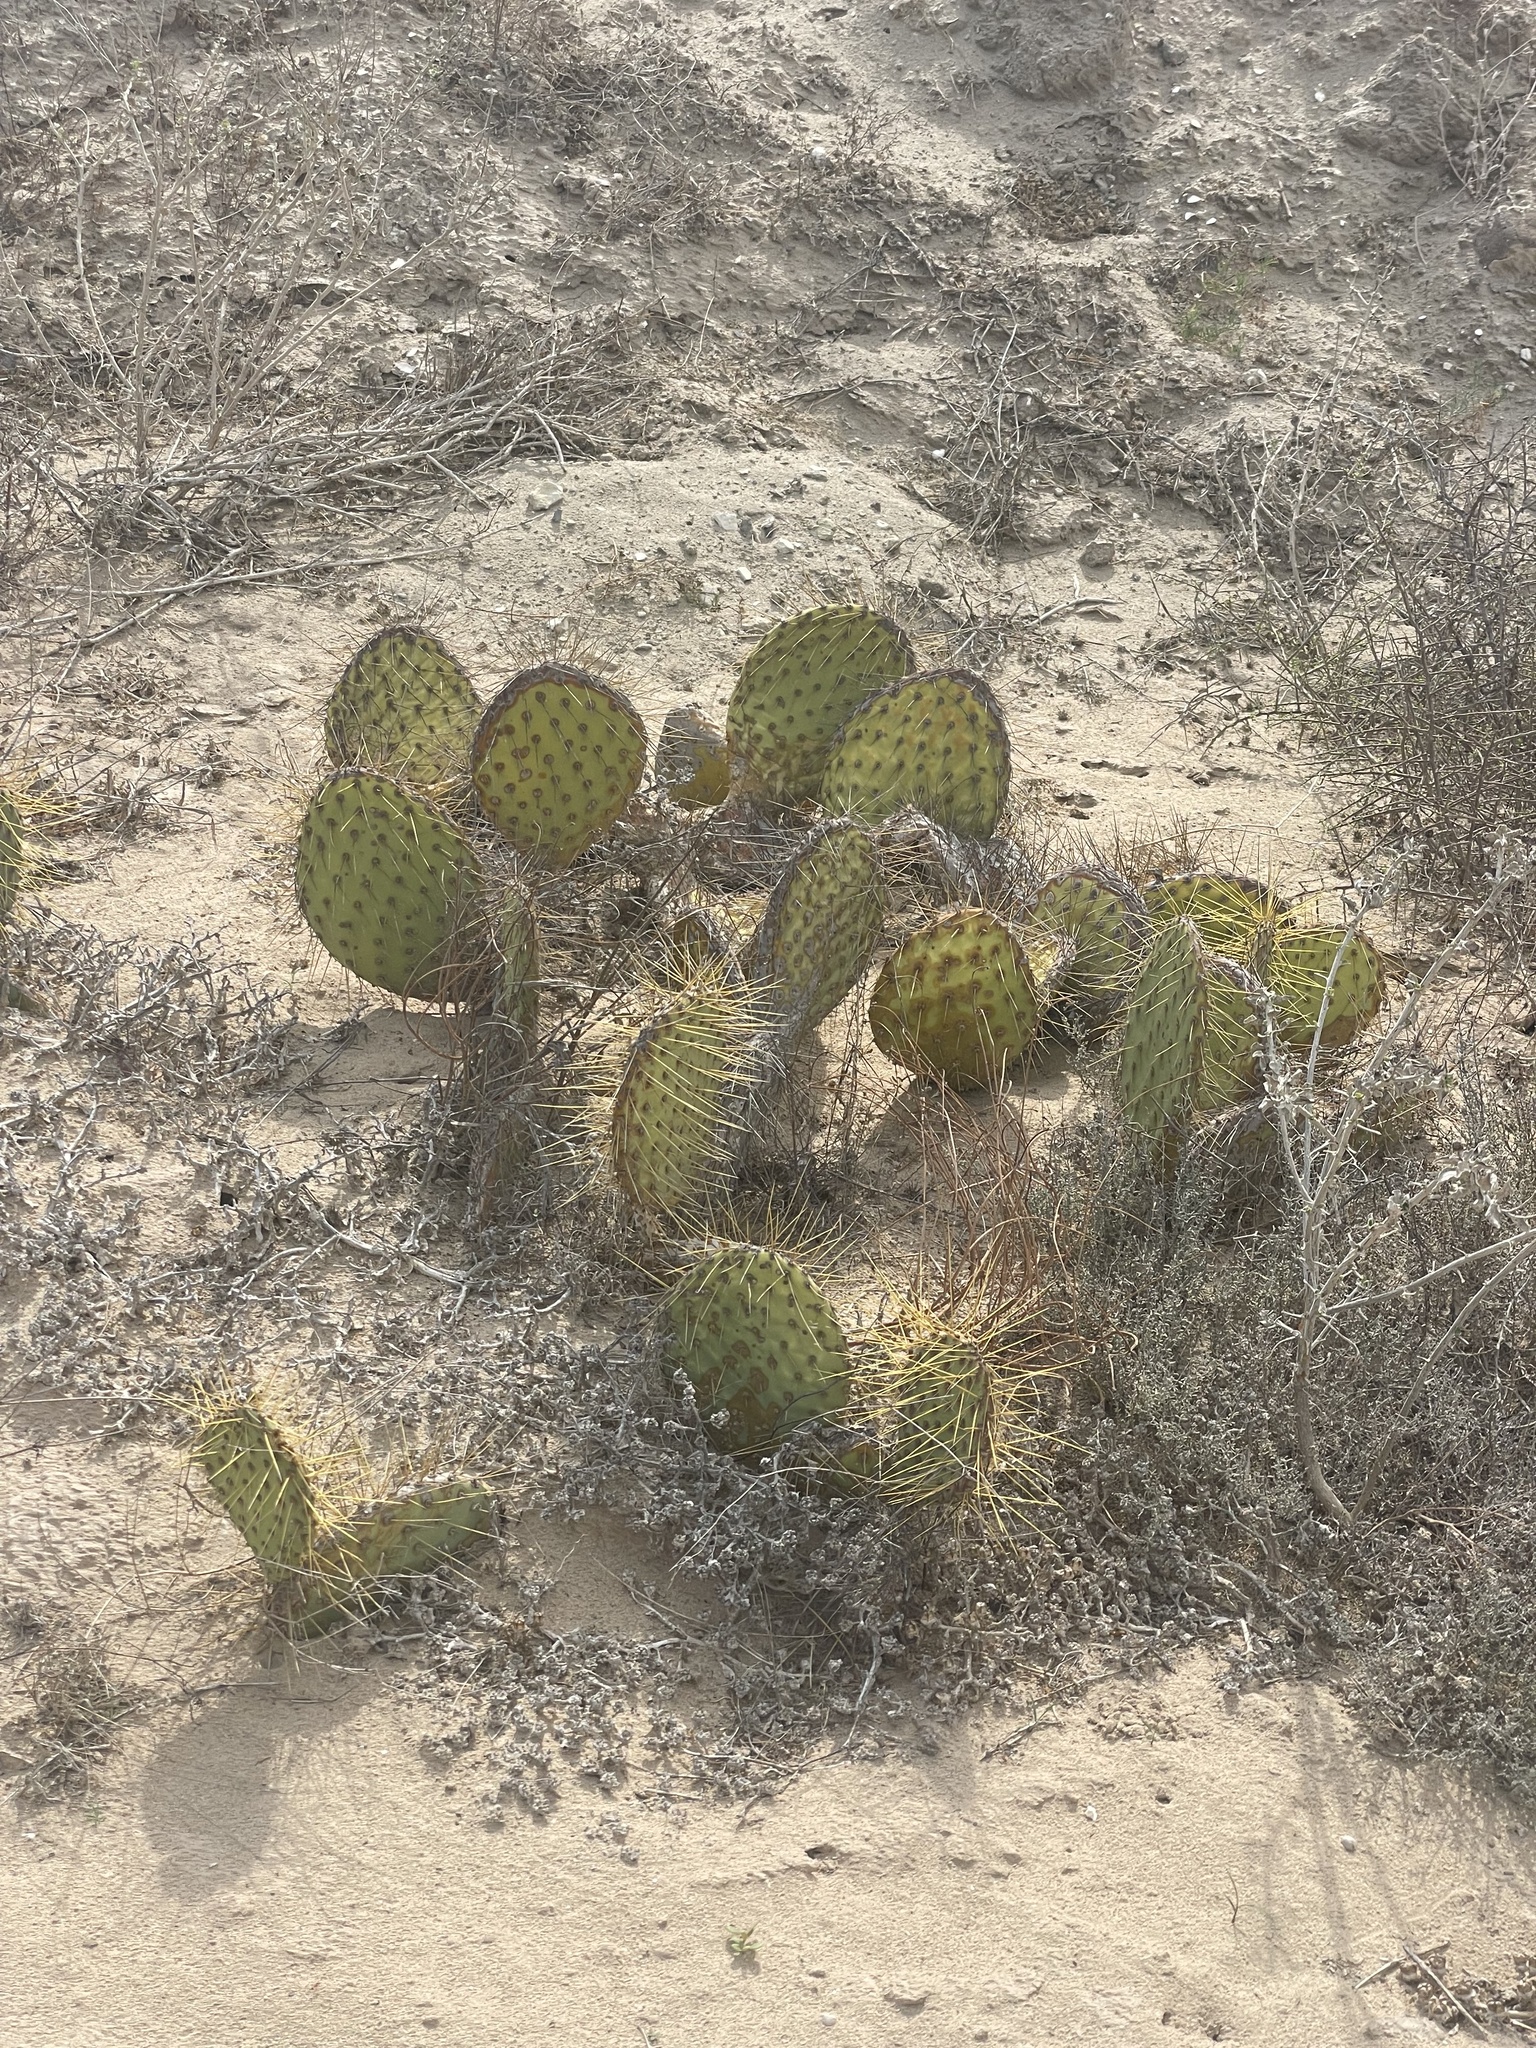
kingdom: Plantae
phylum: Tracheophyta
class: Magnoliopsida
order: Caryophyllales
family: Cactaceae
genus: Opuntia
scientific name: Opuntia tapona
